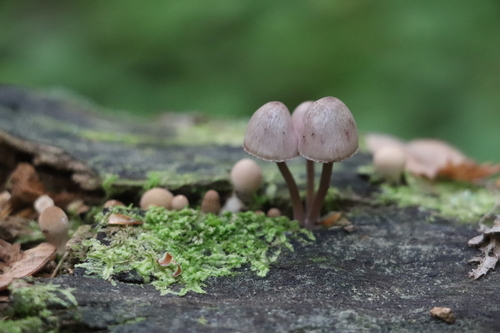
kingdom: Fungi
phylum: Basidiomycota
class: Agaricomycetes
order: Agaricales
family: Mycenaceae
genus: Mycena
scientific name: Mycena haematopus
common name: Burgundydrop bonnet
